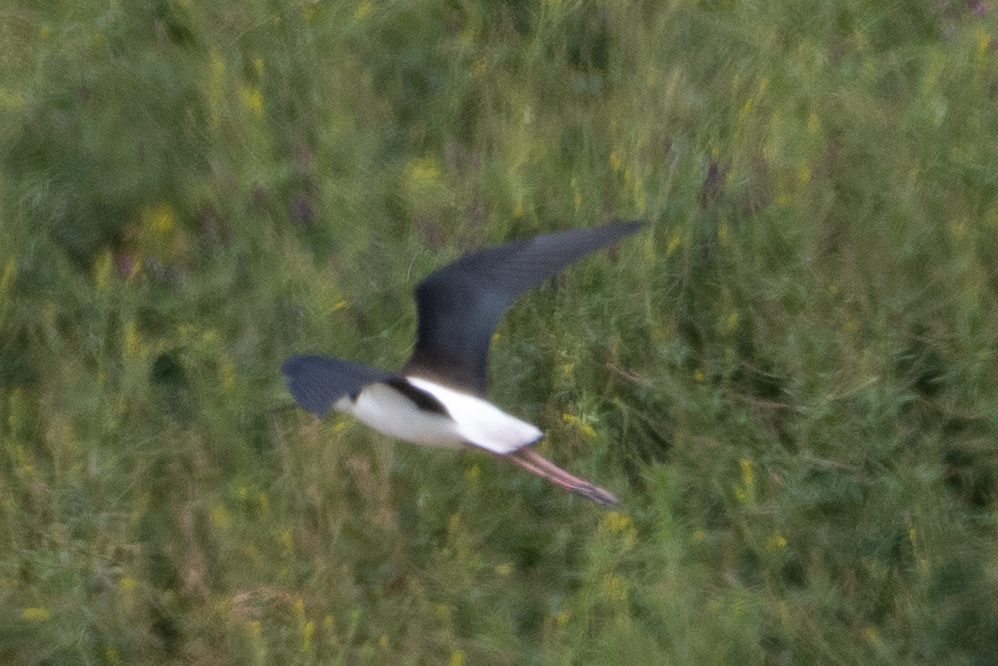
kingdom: Animalia
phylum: Chordata
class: Aves
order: Charadriiformes
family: Recurvirostridae
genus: Himantopus
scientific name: Himantopus mexicanus
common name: Black-necked stilt
